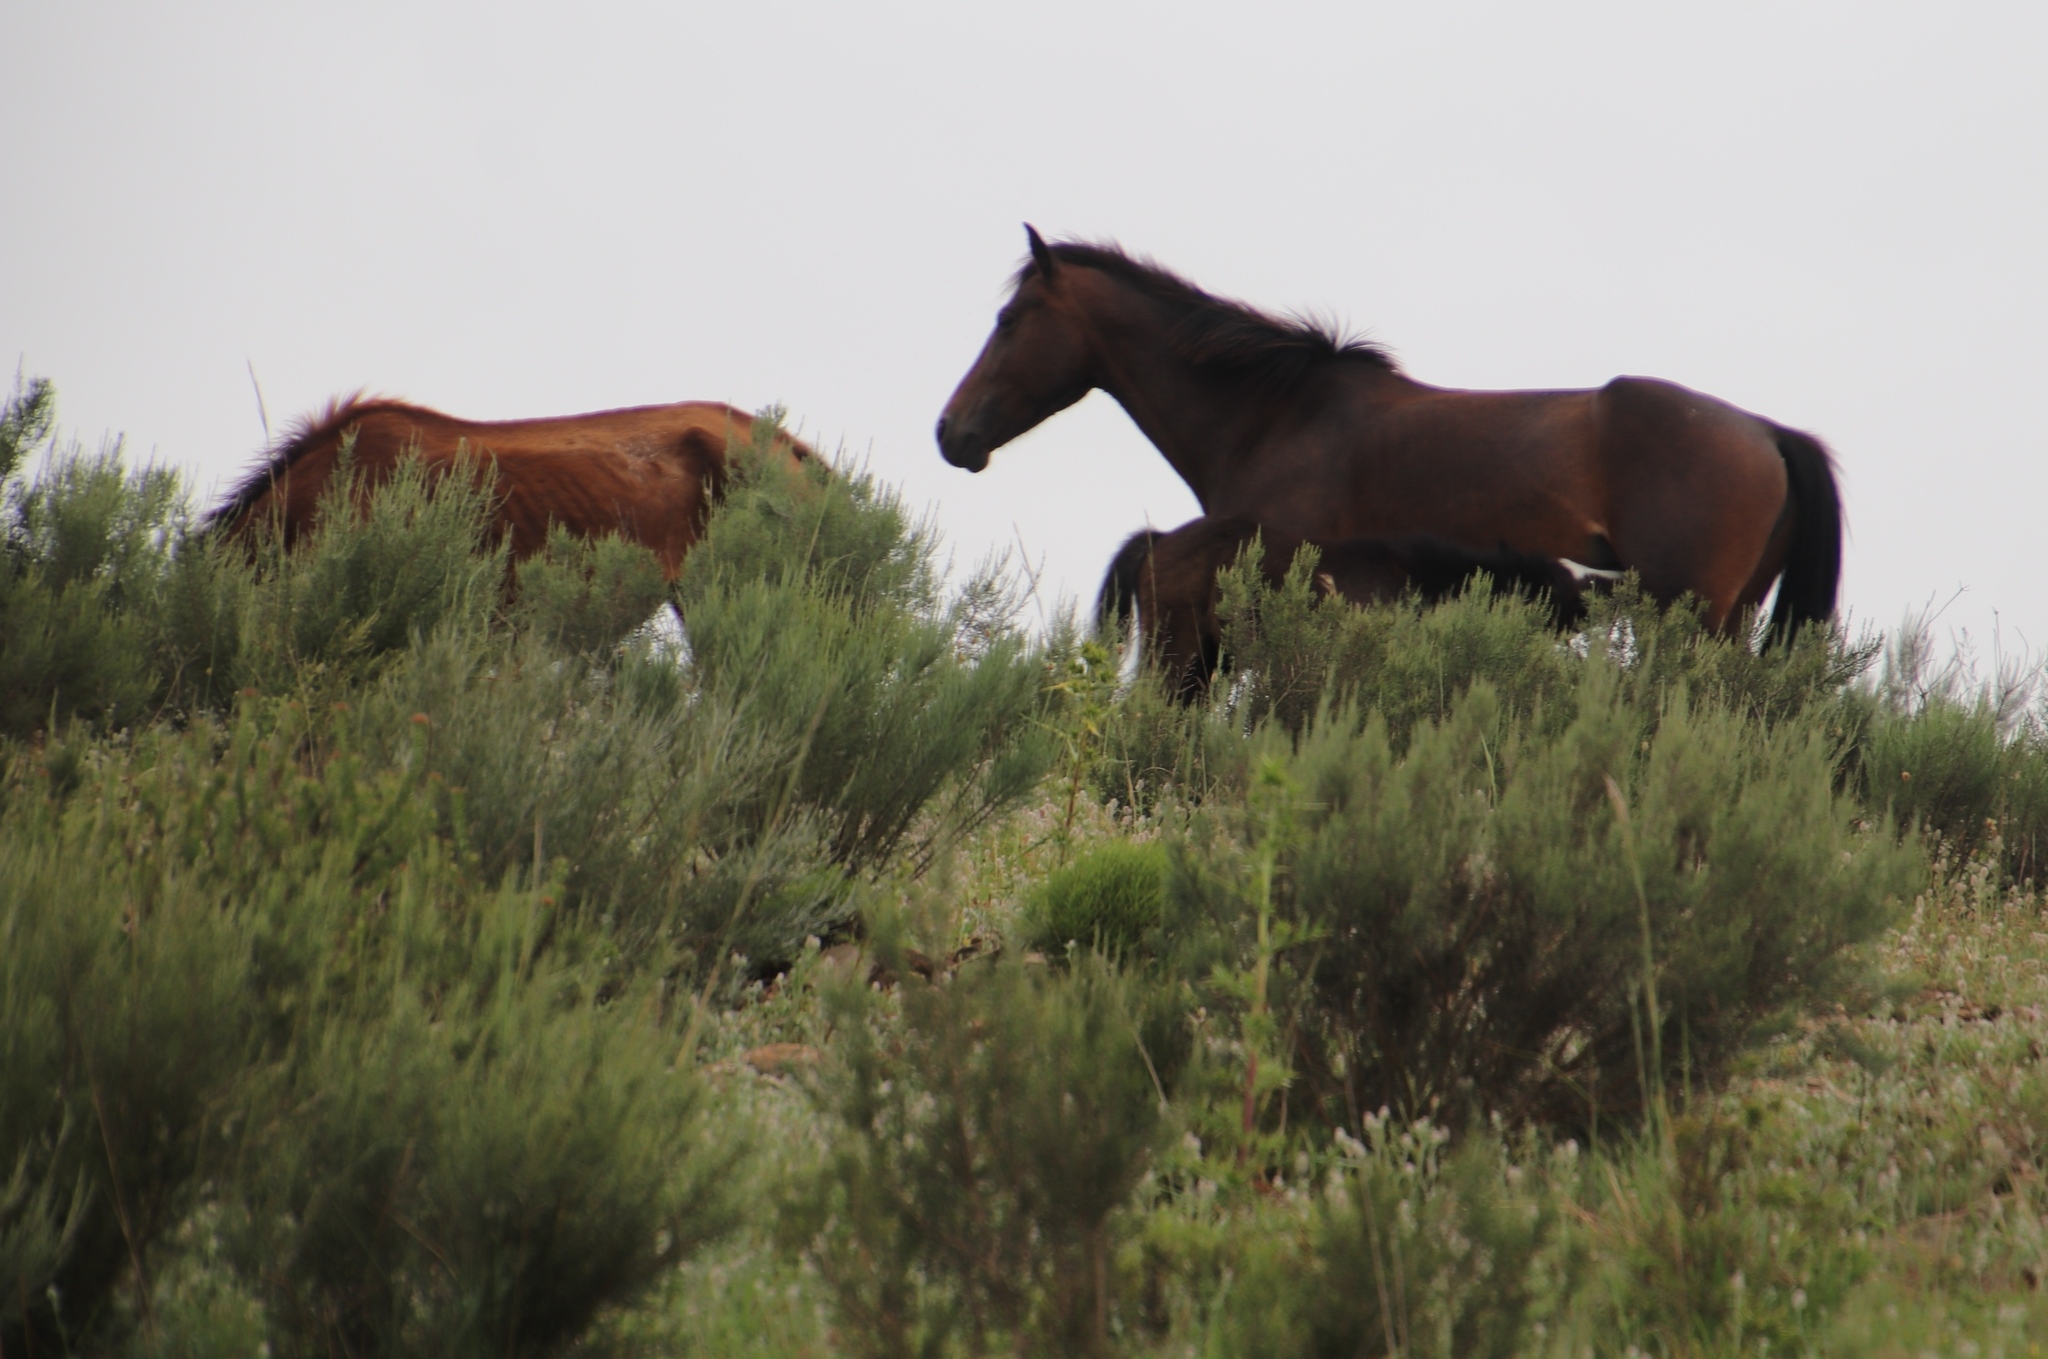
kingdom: Plantae
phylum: Tracheophyta
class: Magnoliopsida
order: Asterales
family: Asteraceae
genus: Dicerothamnus
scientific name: Dicerothamnus rhinocerotis
